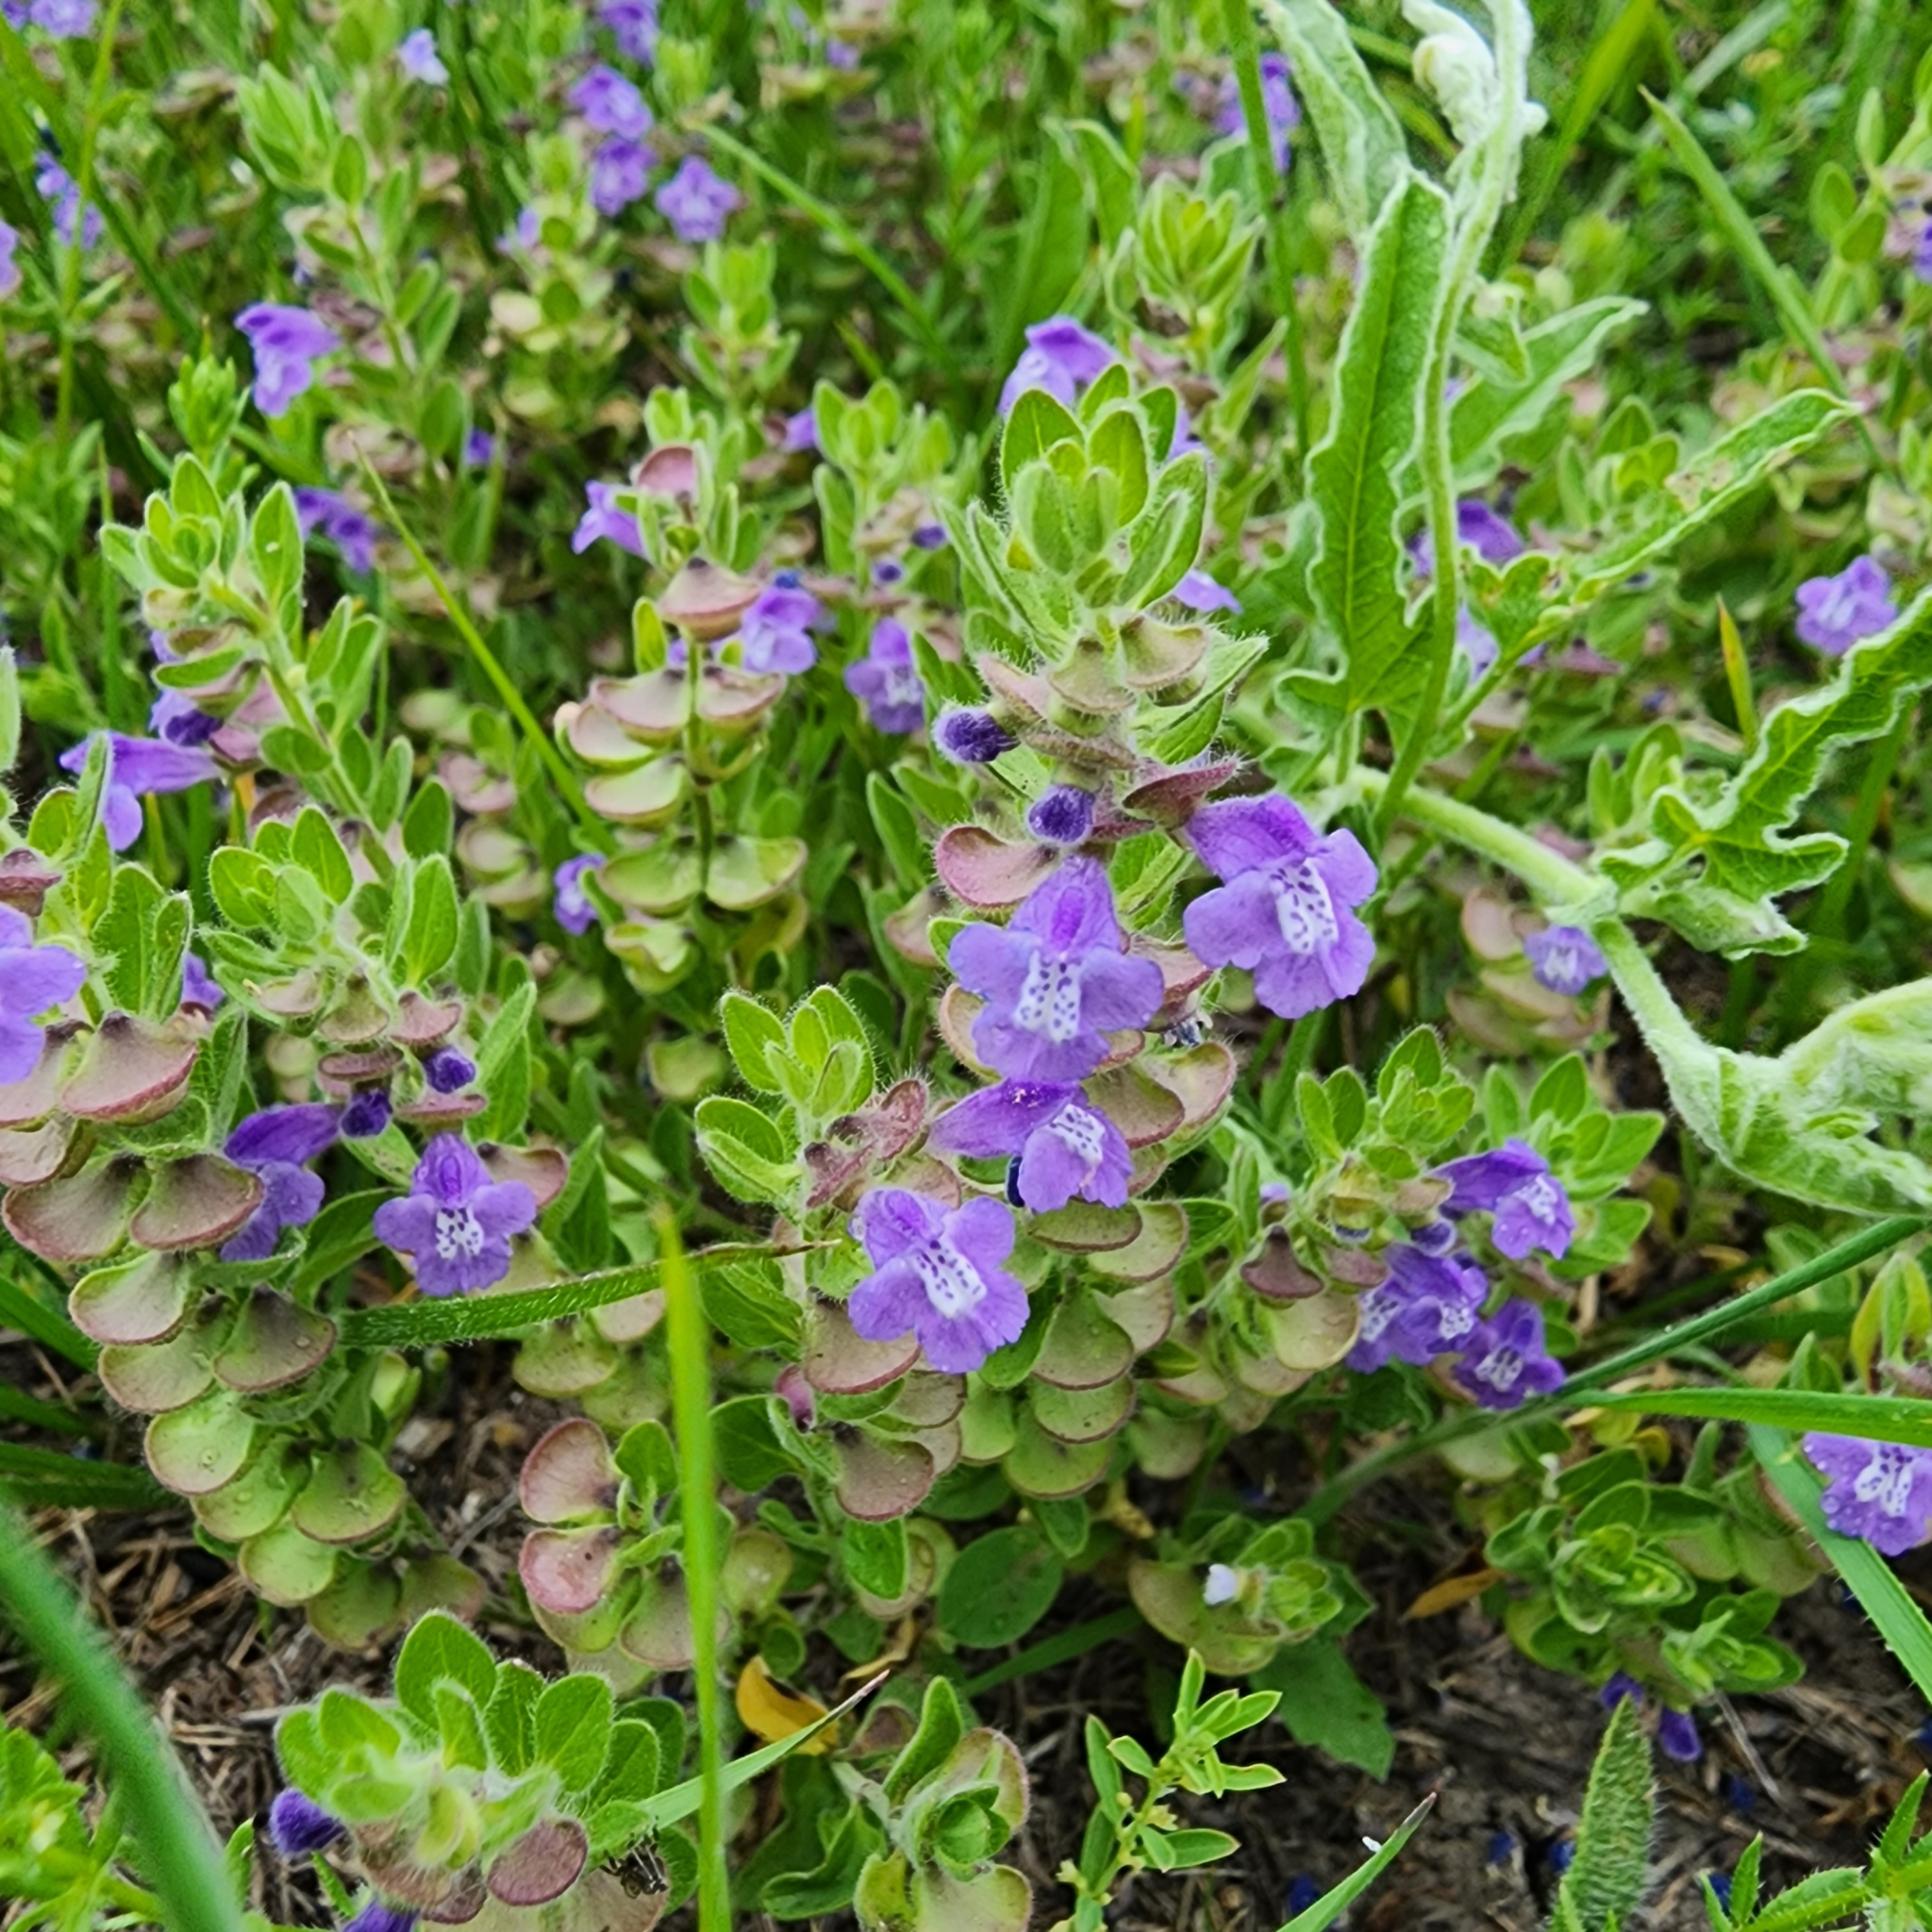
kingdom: Plantae
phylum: Tracheophyta
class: Magnoliopsida
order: Lamiales
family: Lamiaceae
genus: Scutellaria
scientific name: Scutellaria drummondii
